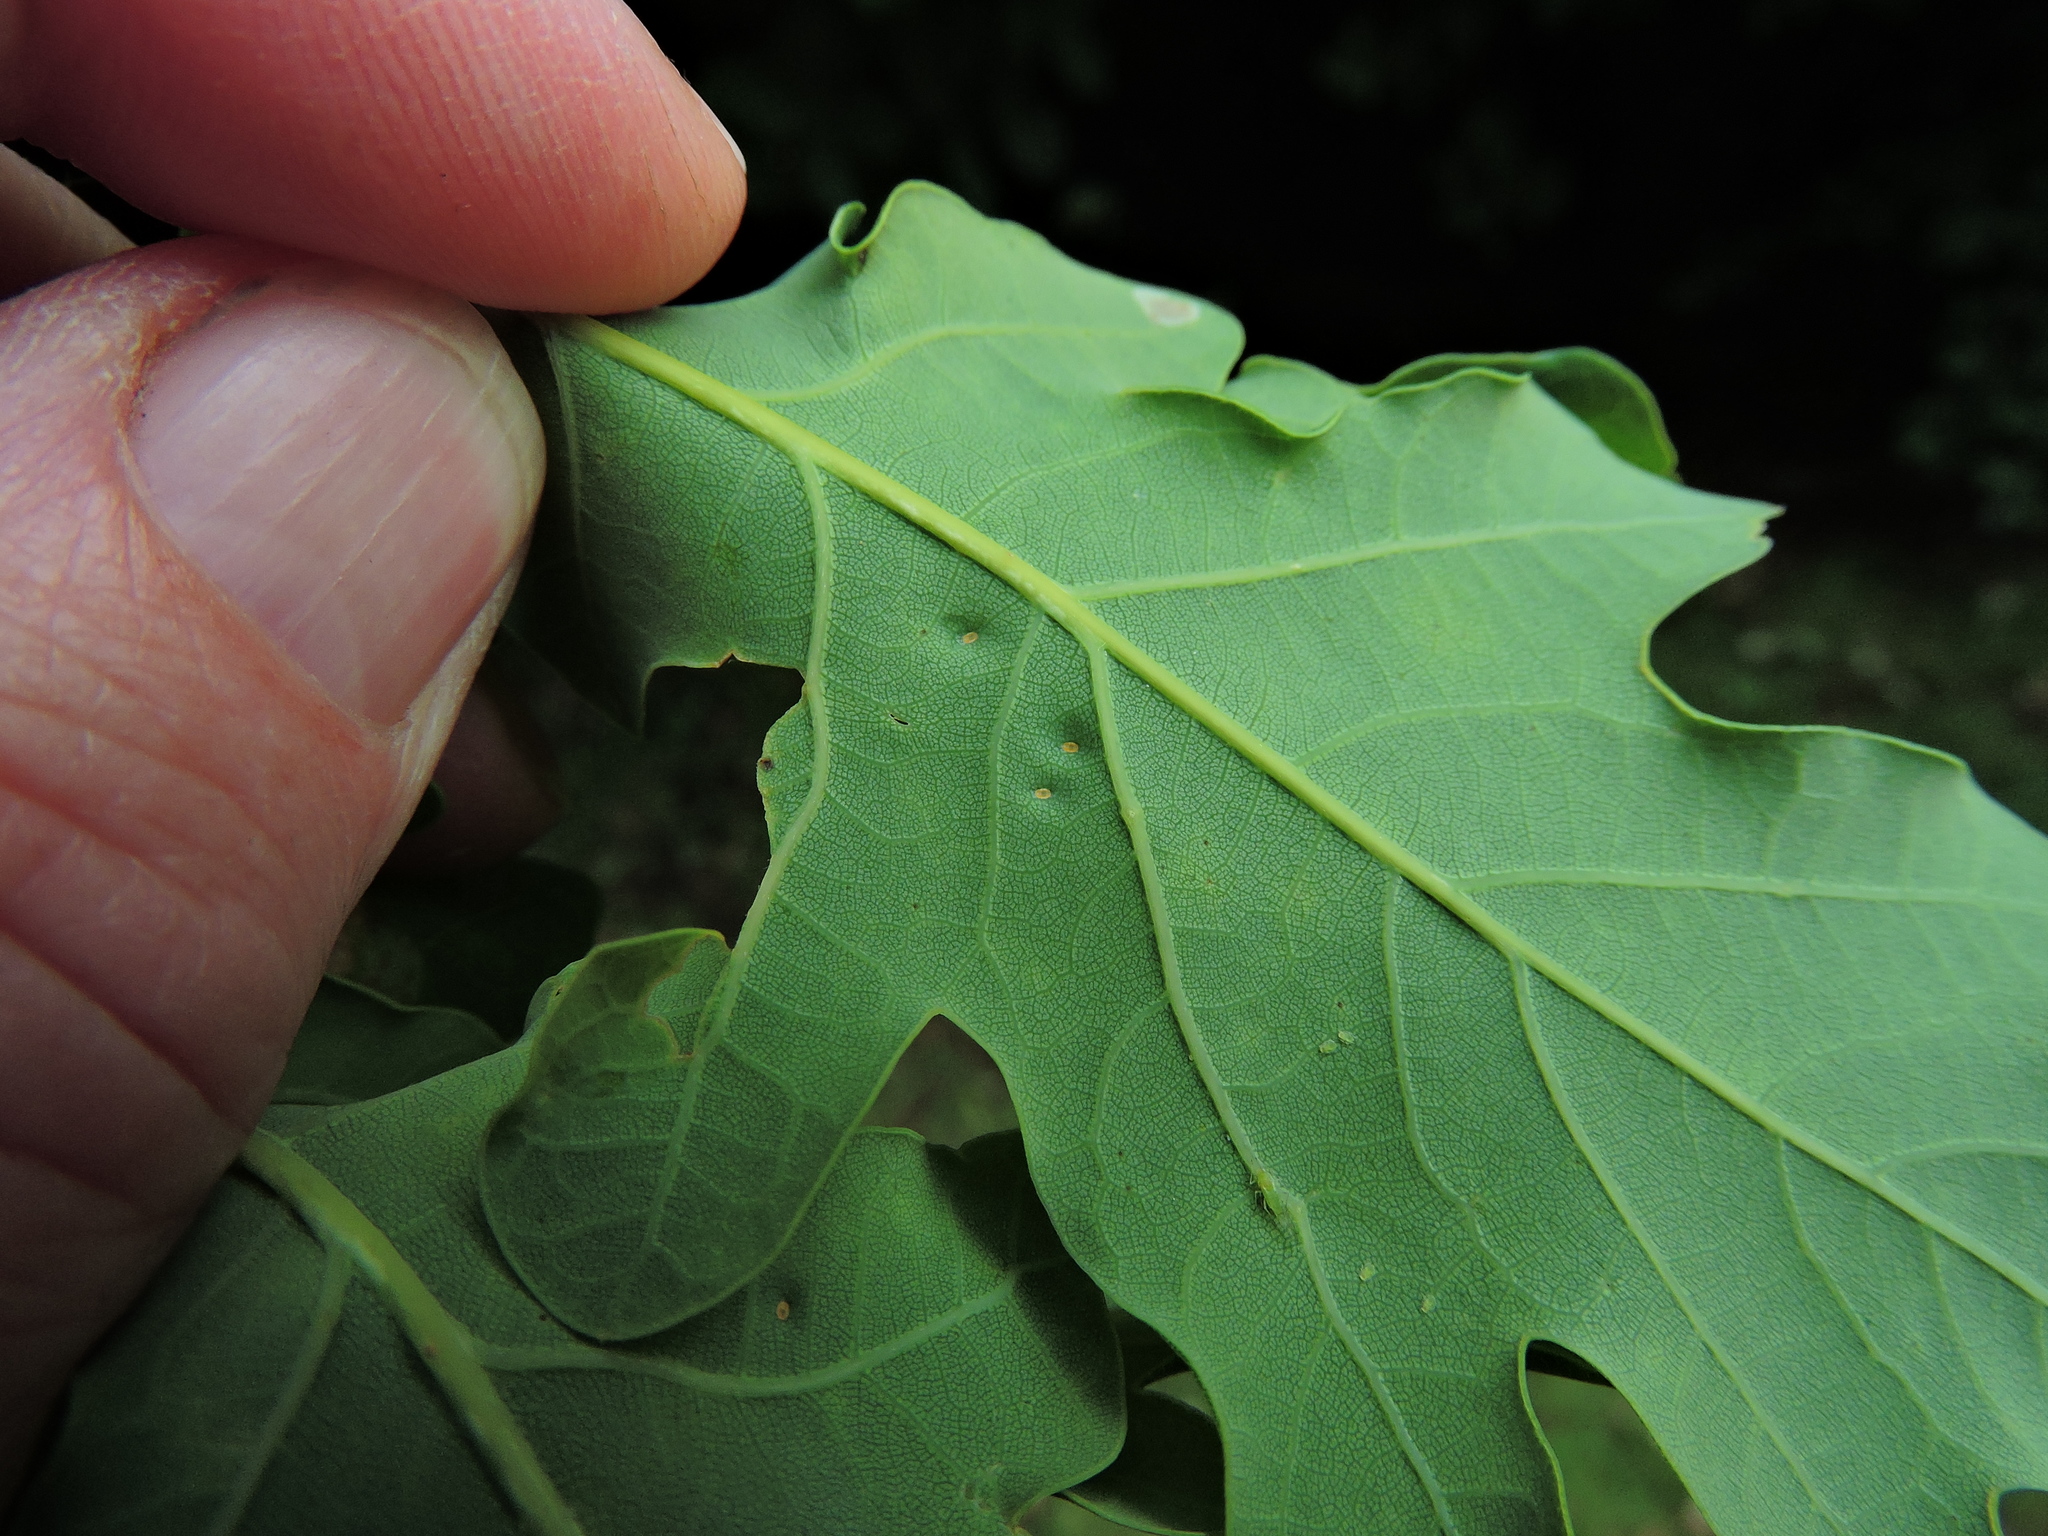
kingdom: Animalia
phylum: Arthropoda
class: Insecta
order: Hemiptera
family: Triozidae
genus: Trioza
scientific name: Trioza remota
